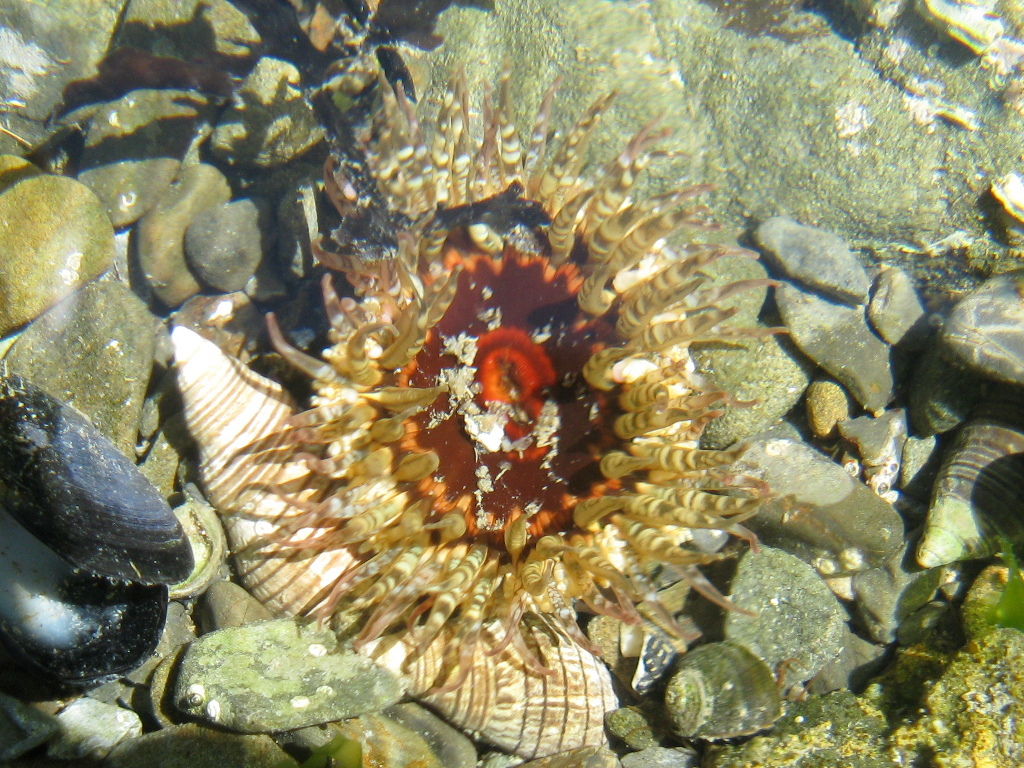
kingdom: Animalia
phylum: Cnidaria
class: Anthozoa
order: Actiniaria
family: Actiniidae
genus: Oulactis
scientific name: Oulactis muscosa
